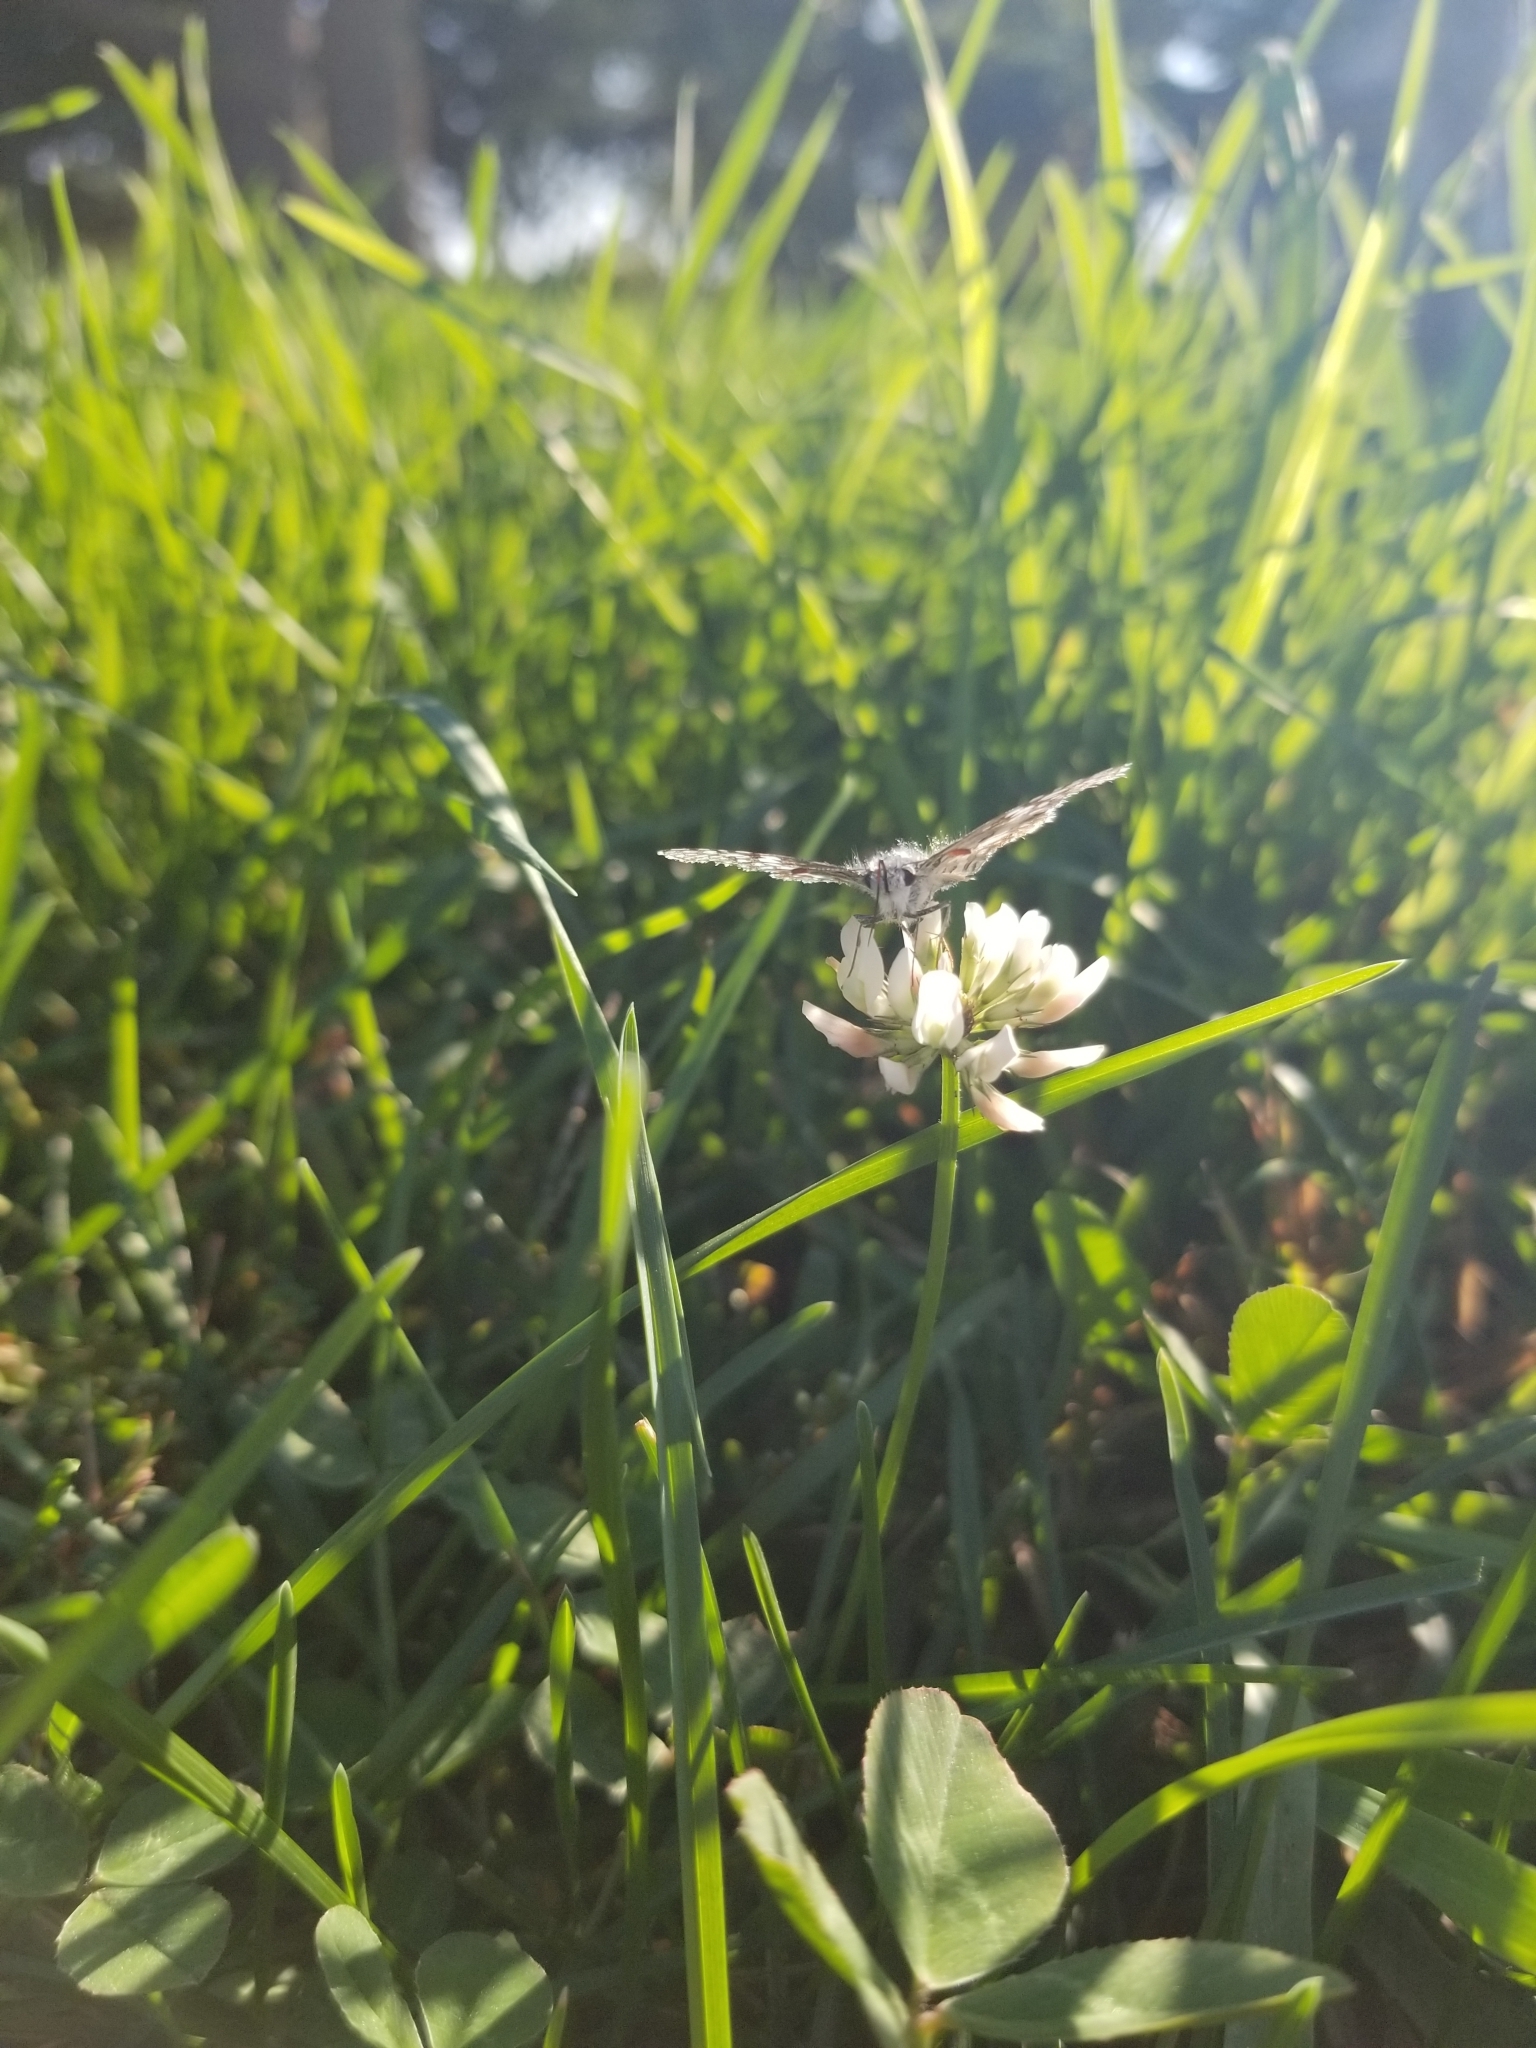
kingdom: Animalia
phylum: Arthropoda
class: Insecta
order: Lepidoptera
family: Hesperiidae
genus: Burnsius
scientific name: Burnsius communis
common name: Common checkered-skipper
